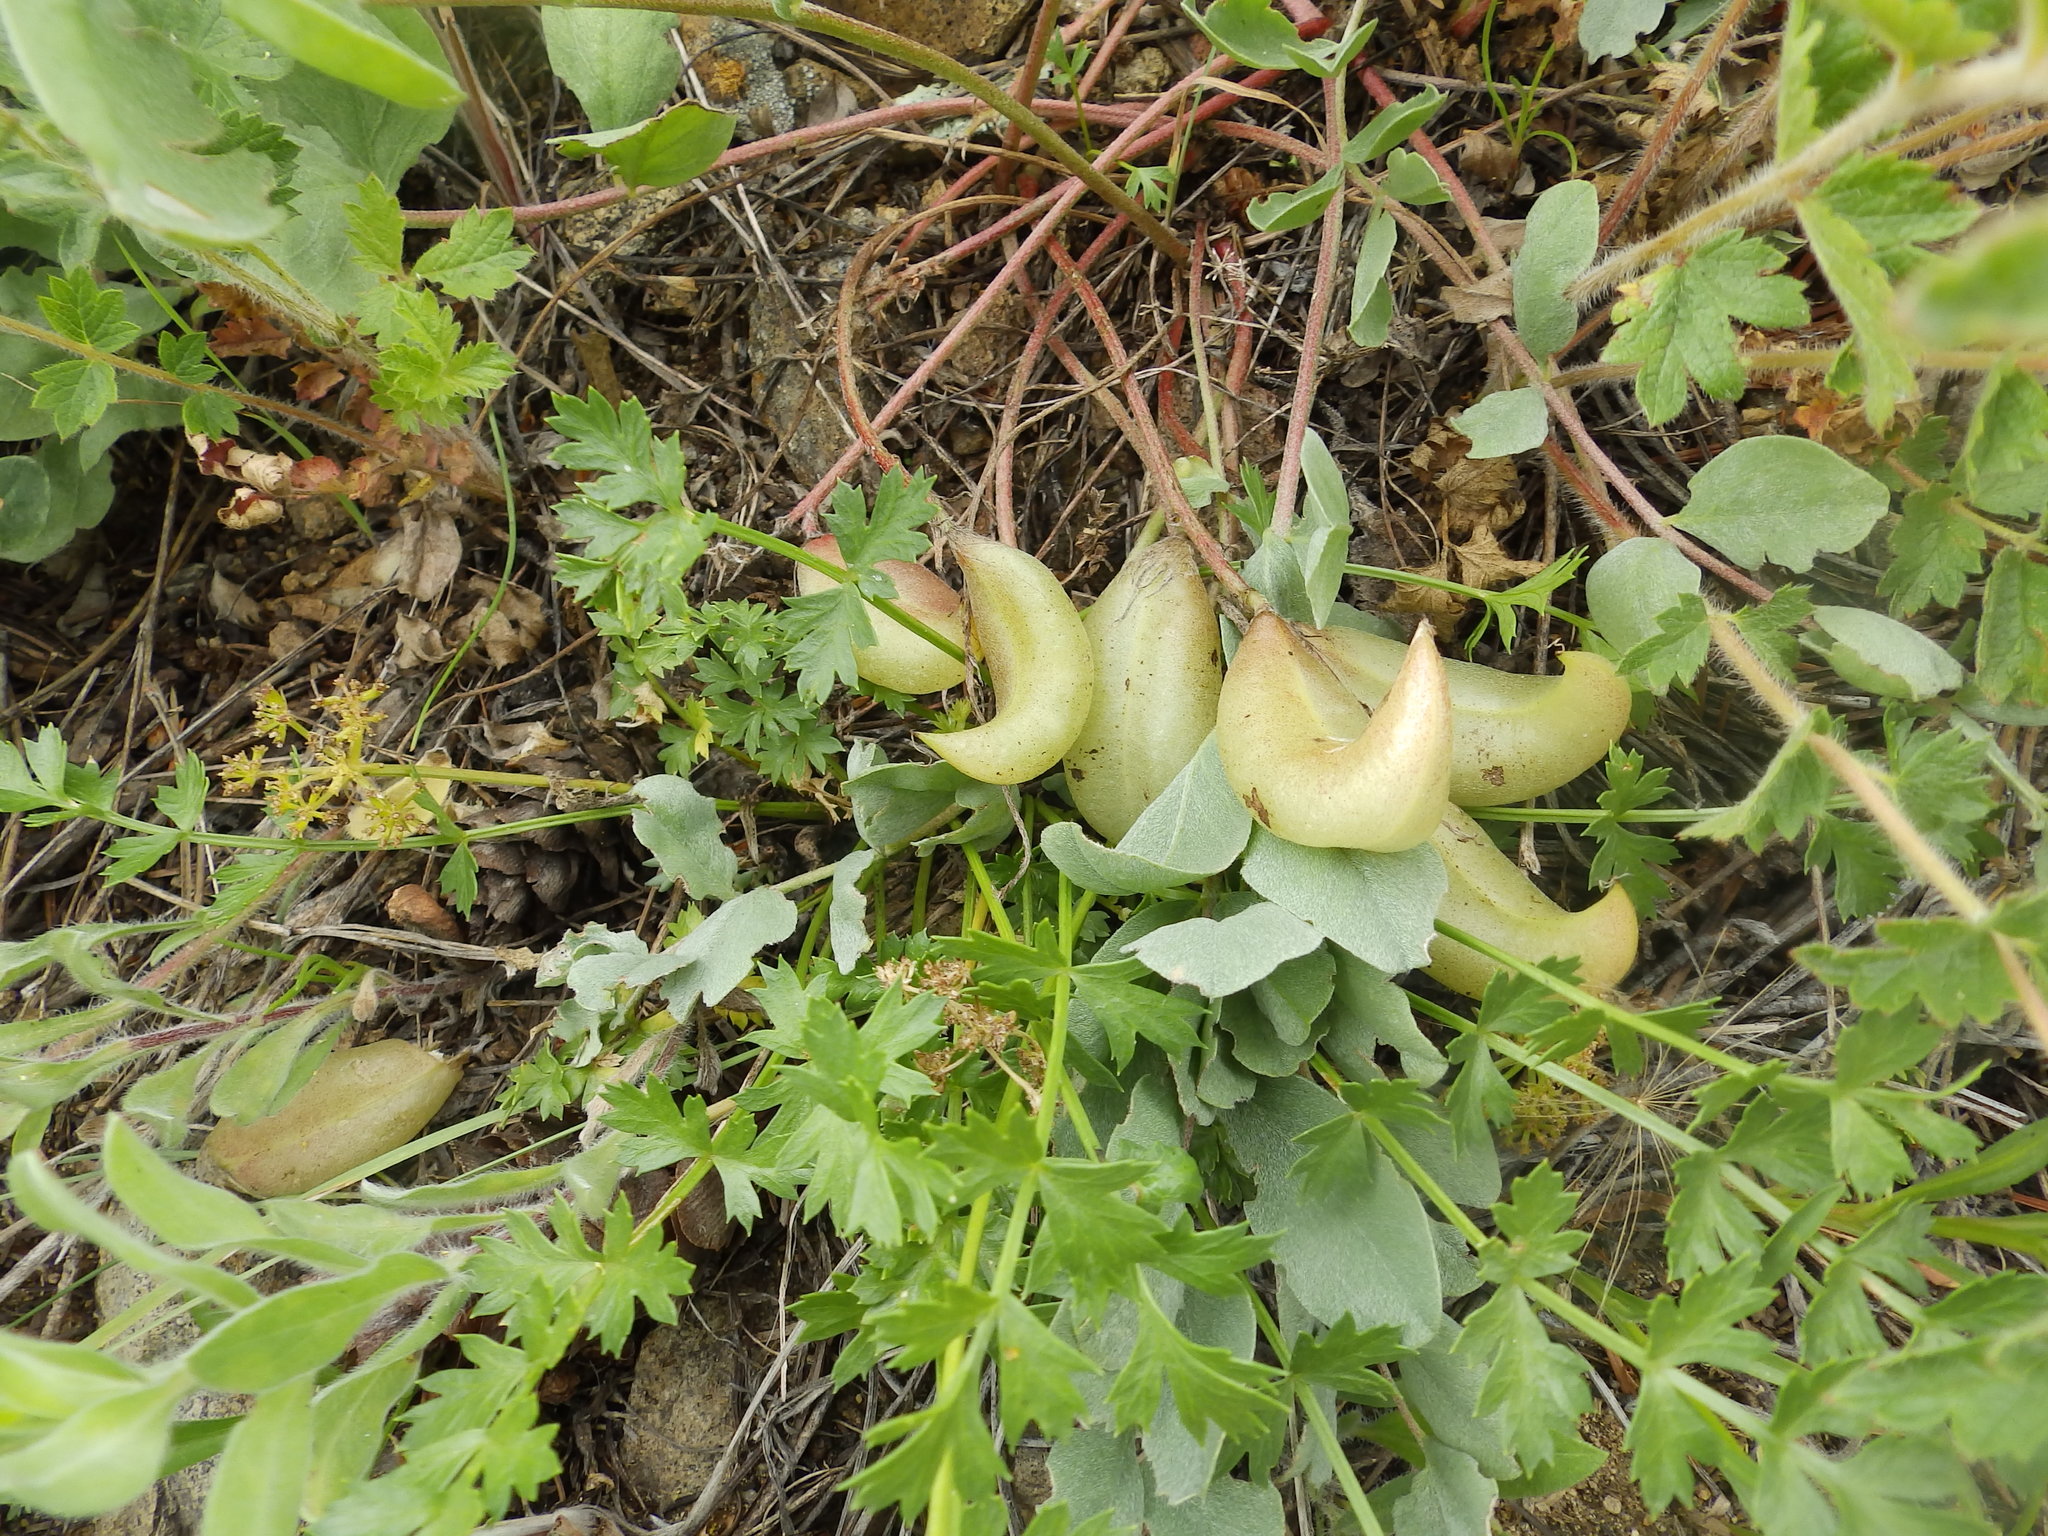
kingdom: Plantae
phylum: Tracheophyta
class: Magnoliopsida
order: Fabales
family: Fabaceae
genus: Astragalus
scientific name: Astragalus shortianus
